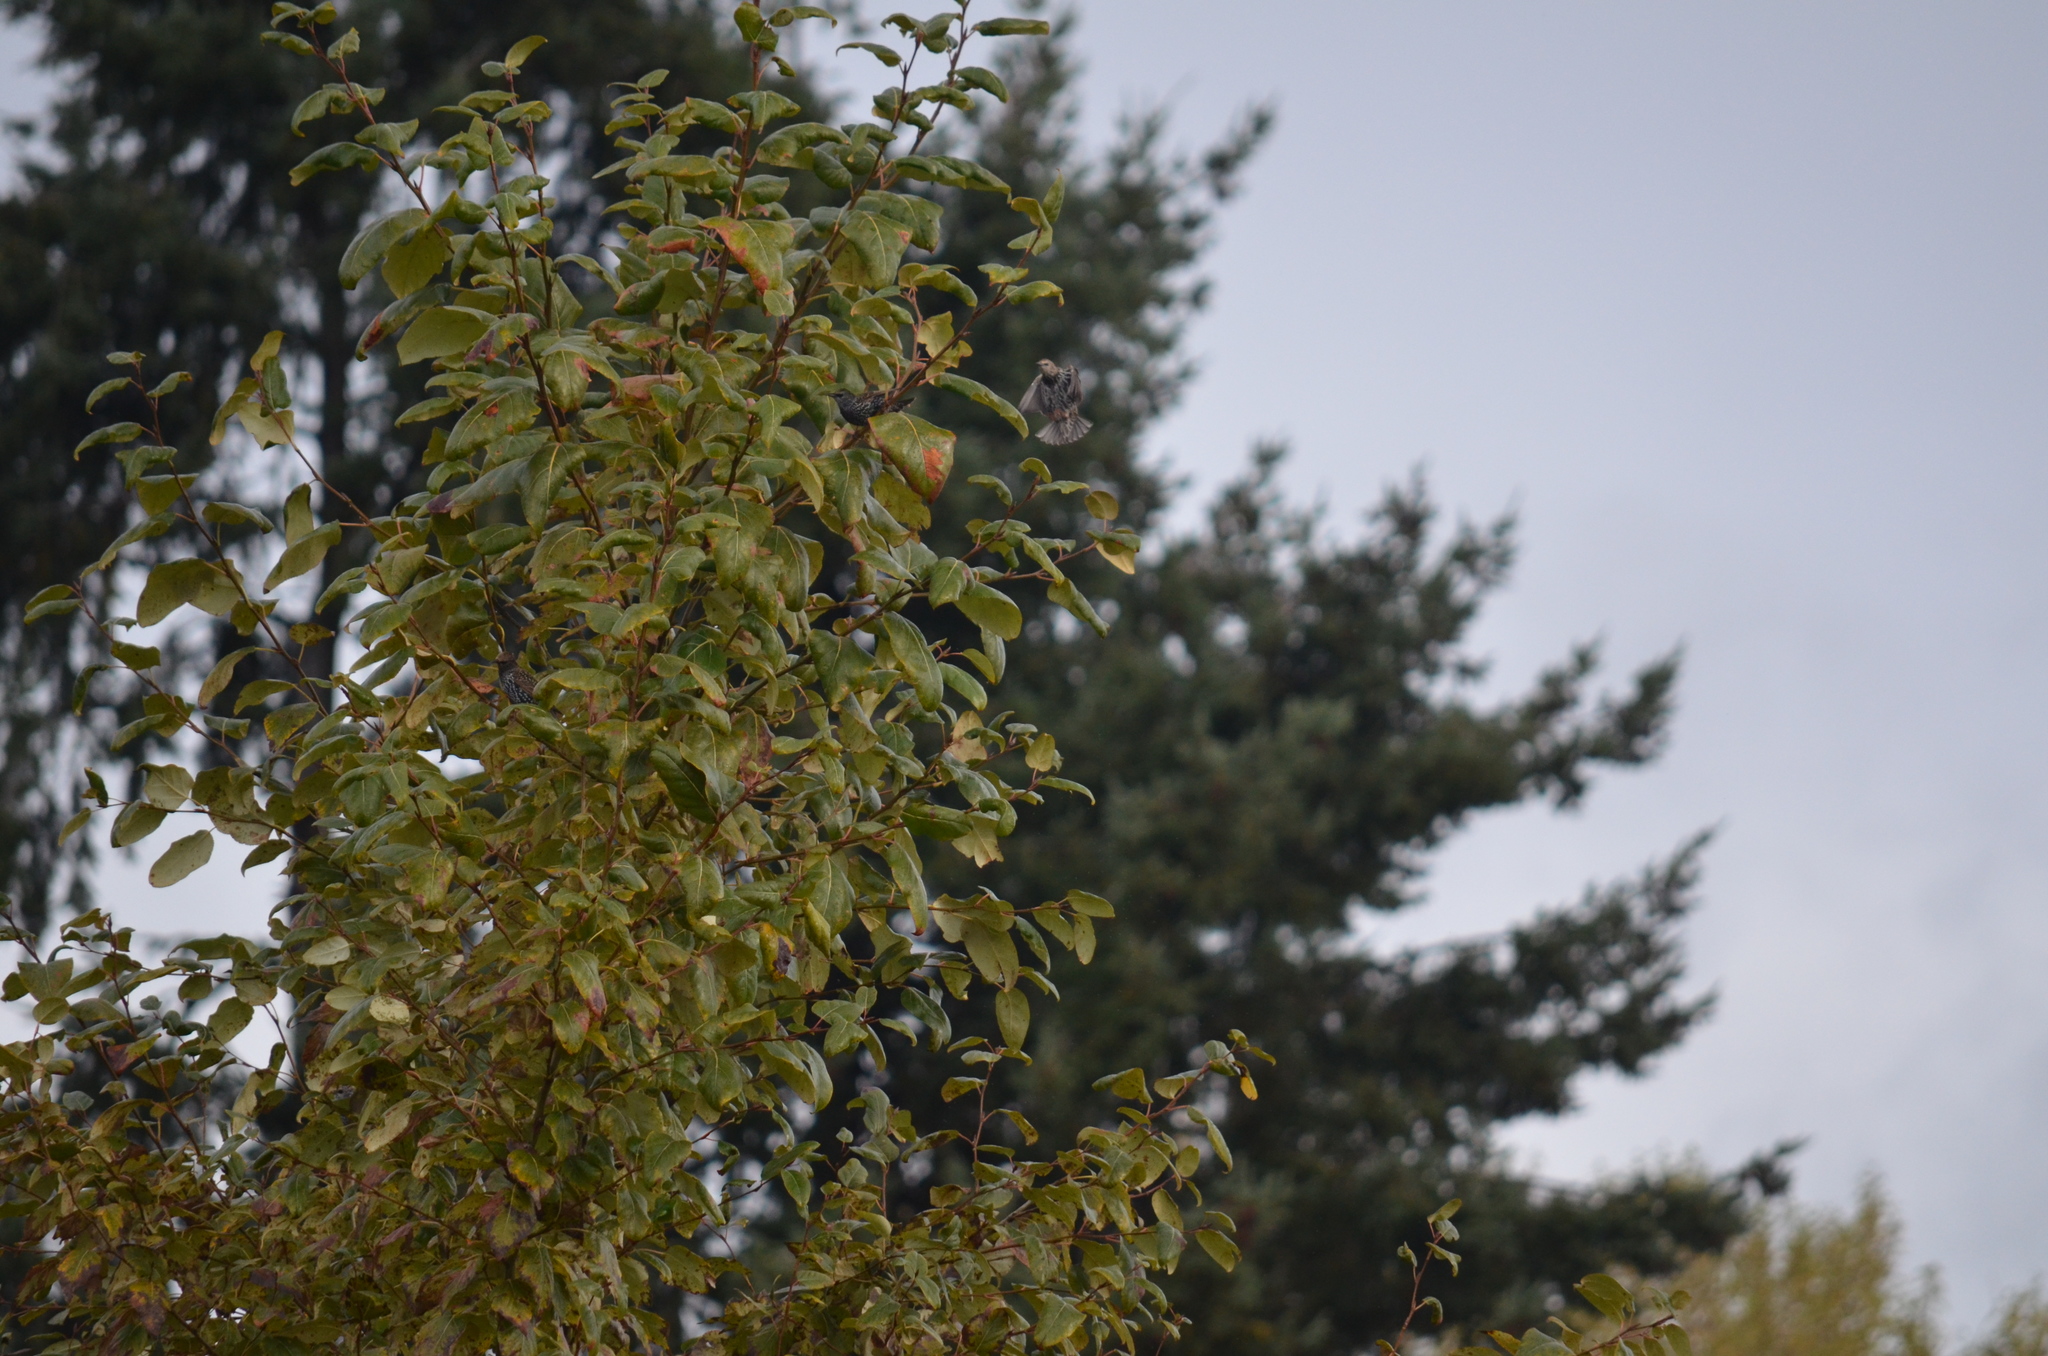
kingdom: Animalia
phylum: Chordata
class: Aves
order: Passeriformes
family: Sturnidae
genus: Sturnus
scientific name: Sturnus vulgaris
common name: Common starling
